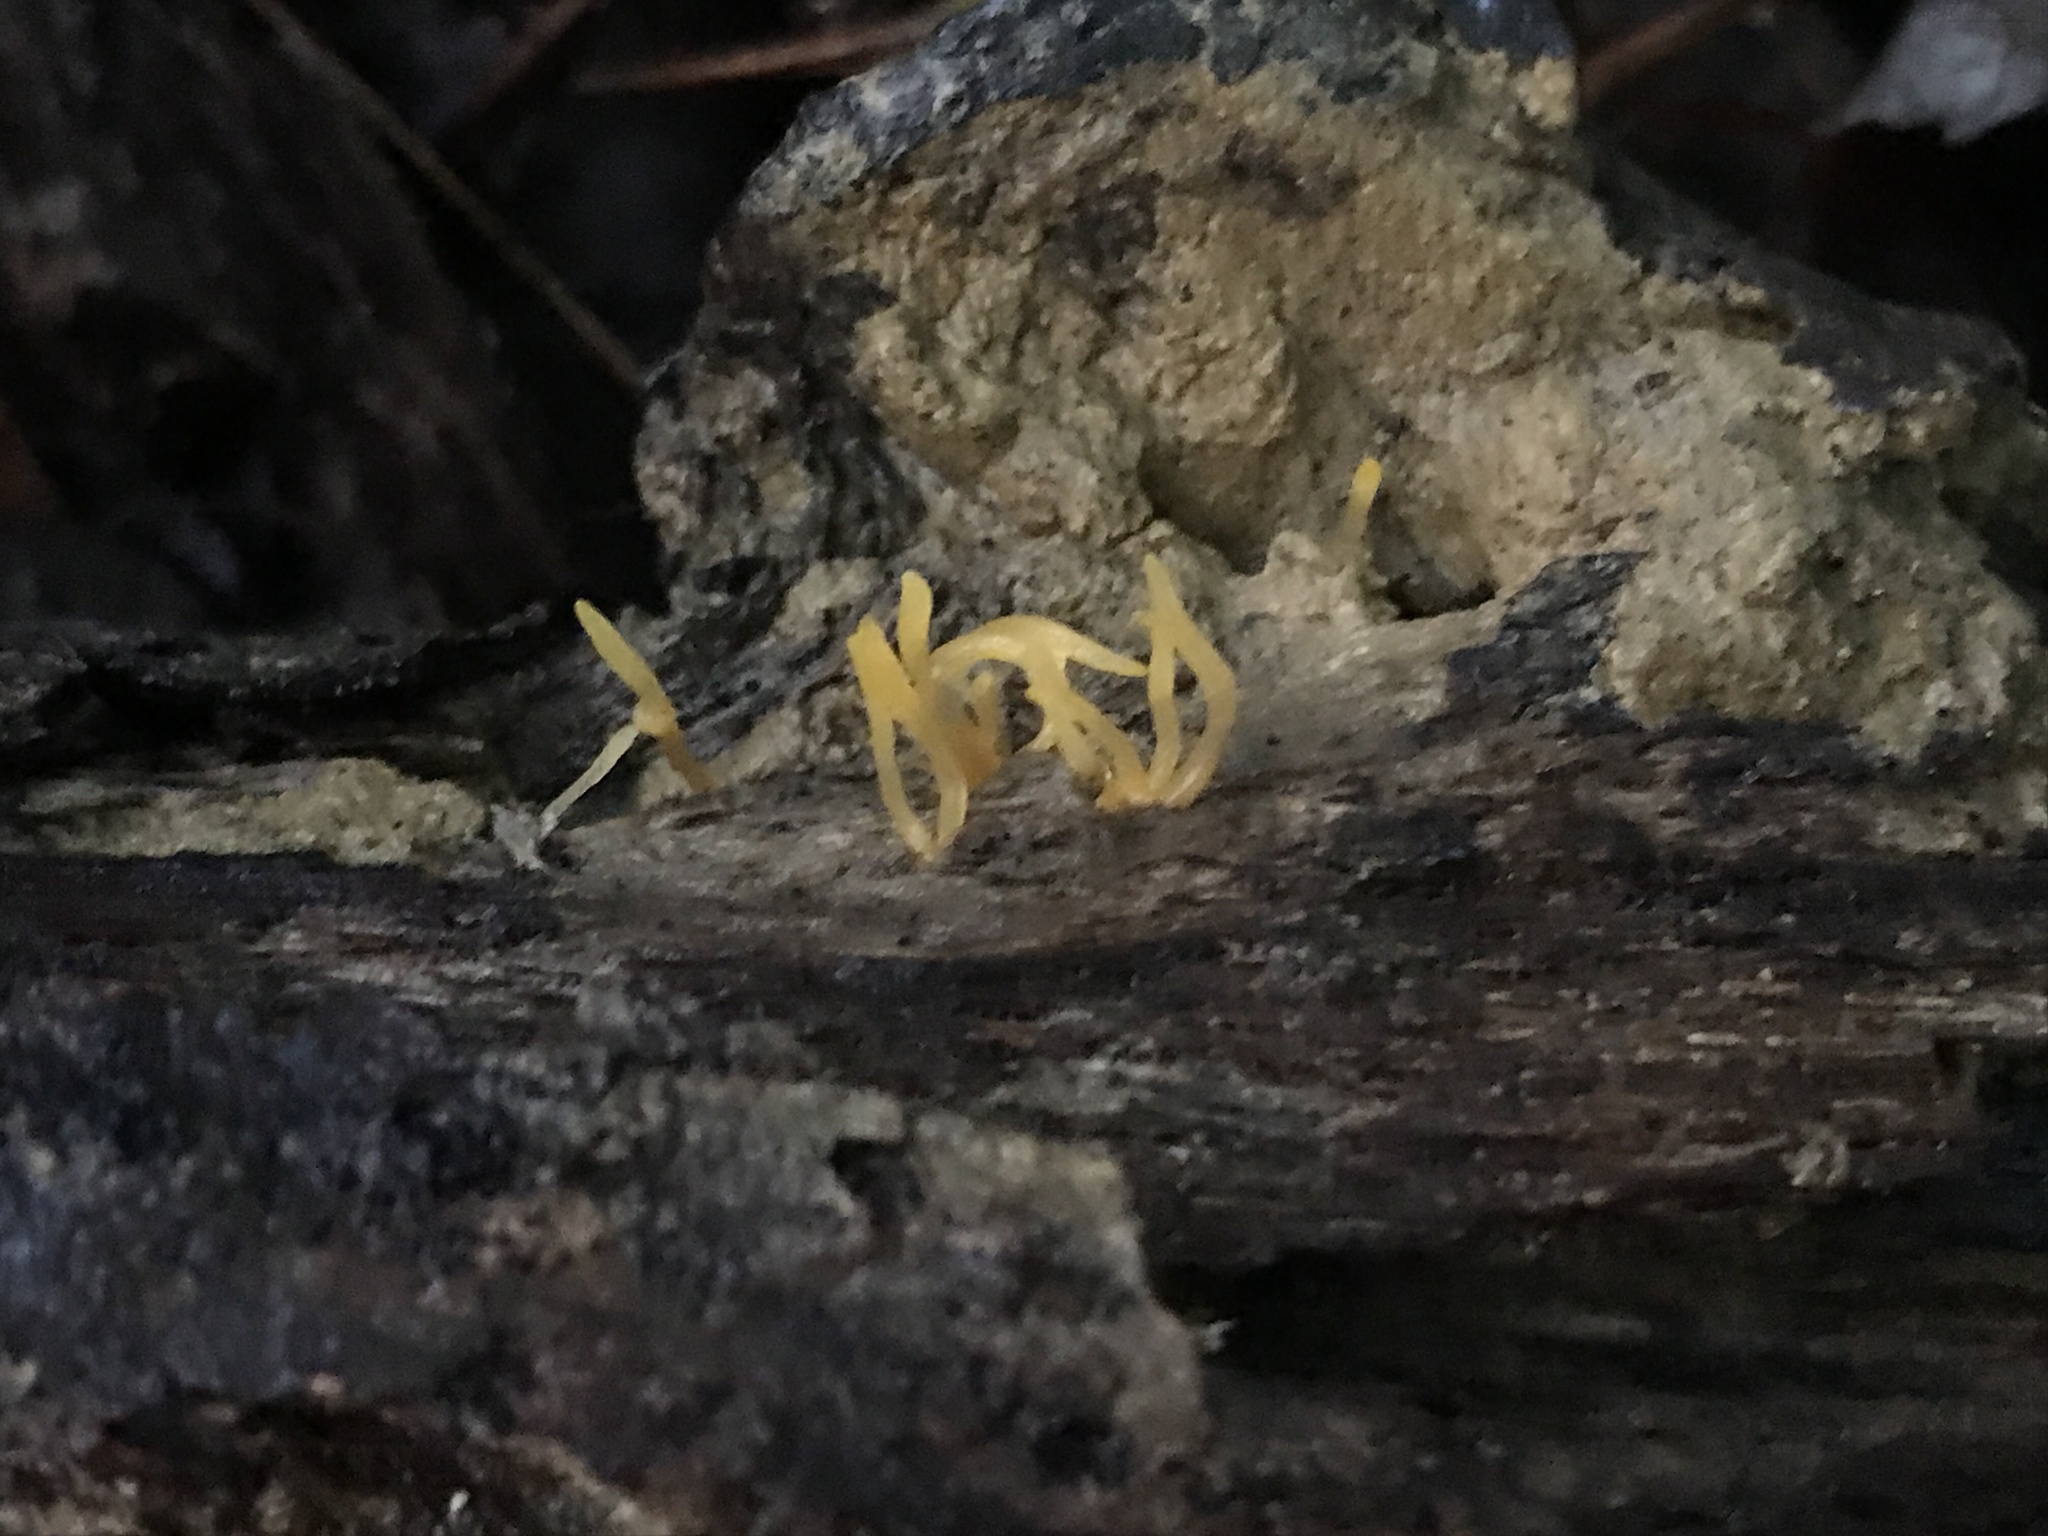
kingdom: Fungi
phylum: Basidiomycota
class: Dacrymycetes
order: Dacrymycetales
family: Dacrymycetaceae
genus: Calocera
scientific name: Calocera cornea
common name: Small stagshorn
